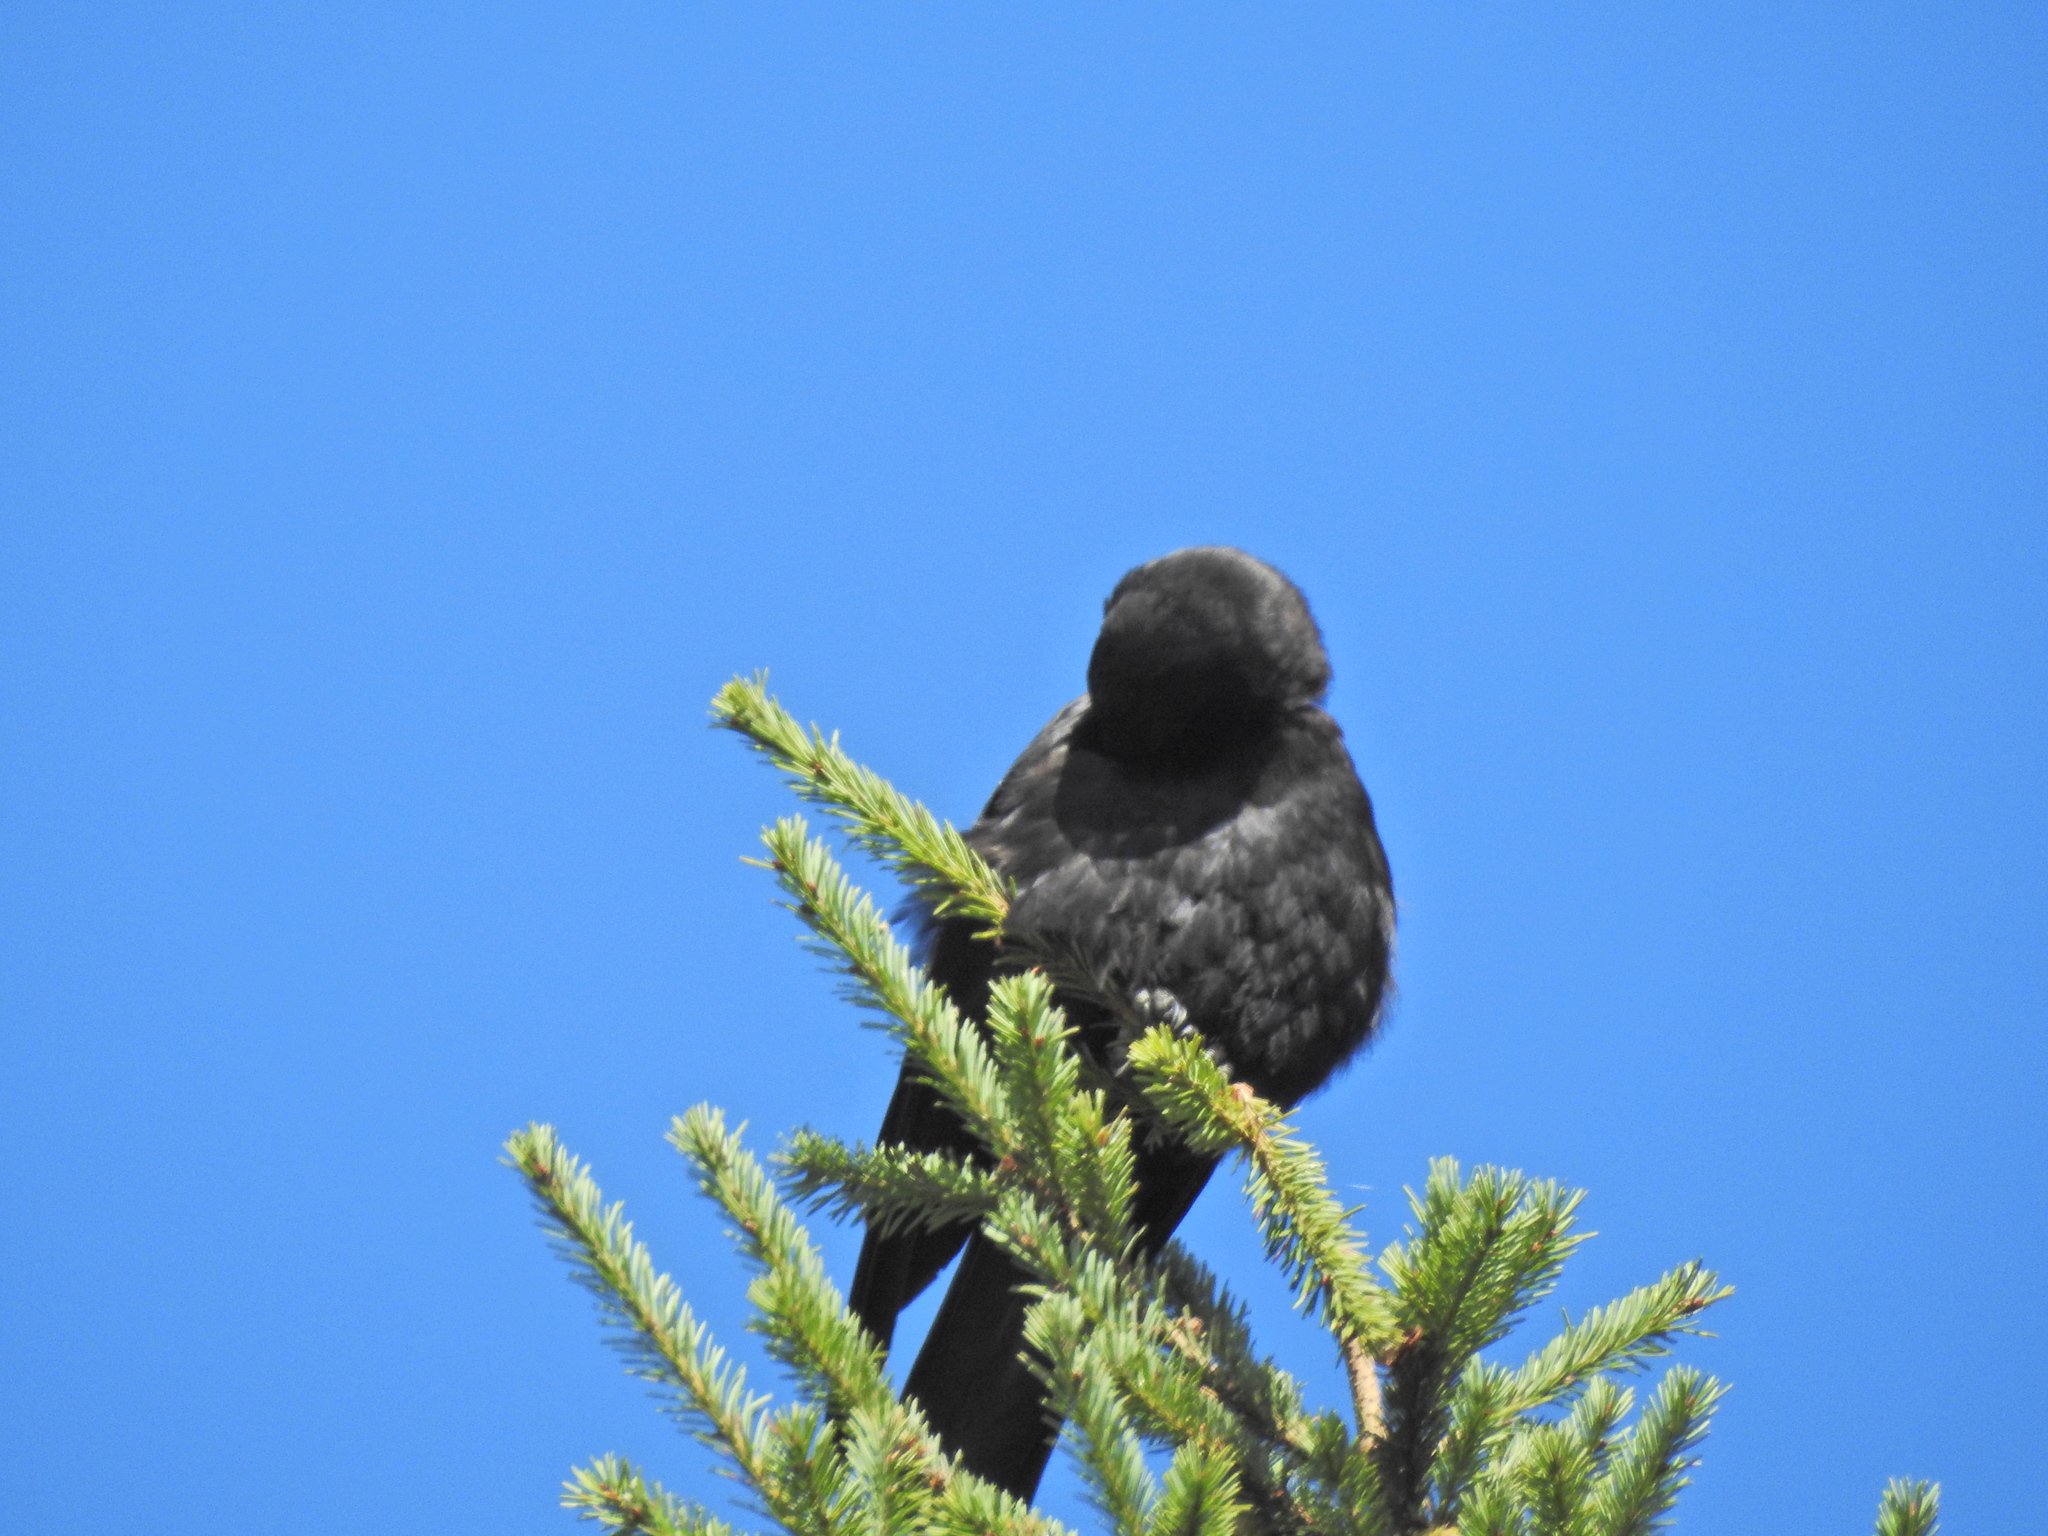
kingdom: Animalia
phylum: Chordata
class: Aves
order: Passeriformes
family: Corvidae
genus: Corvus
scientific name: Corvus brachyrhynchos
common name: American crow
